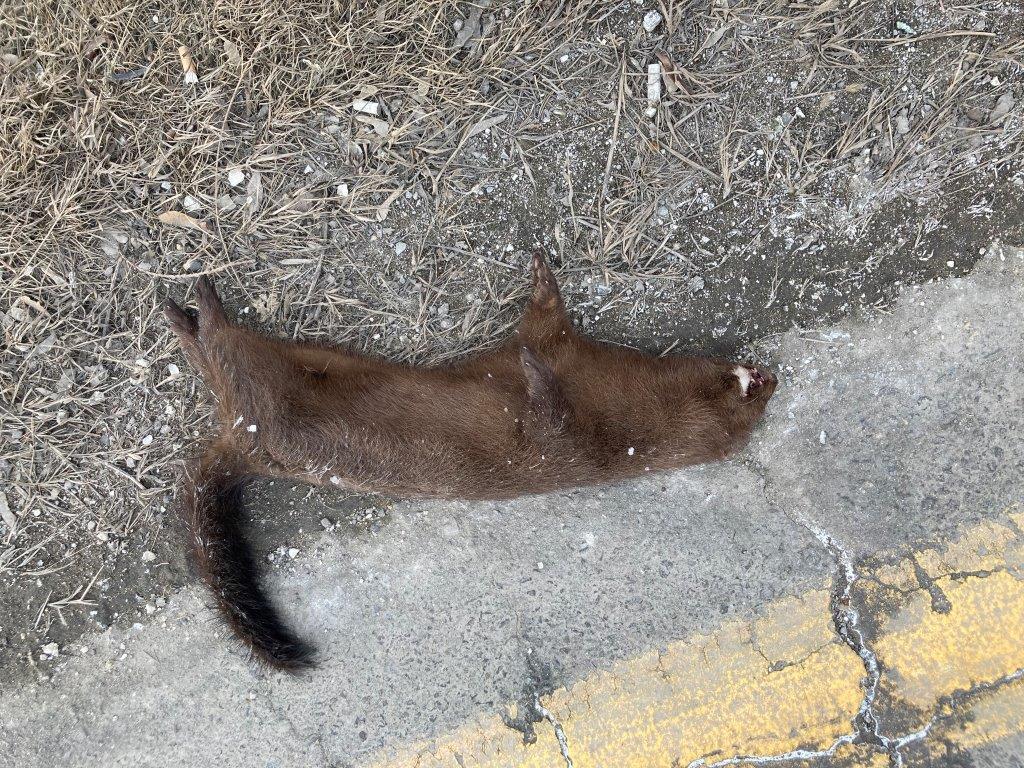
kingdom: Animalia
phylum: Chordata
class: Mammalia
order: Carnivora
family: Mustelidae
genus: Mustela
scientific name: Mustela
